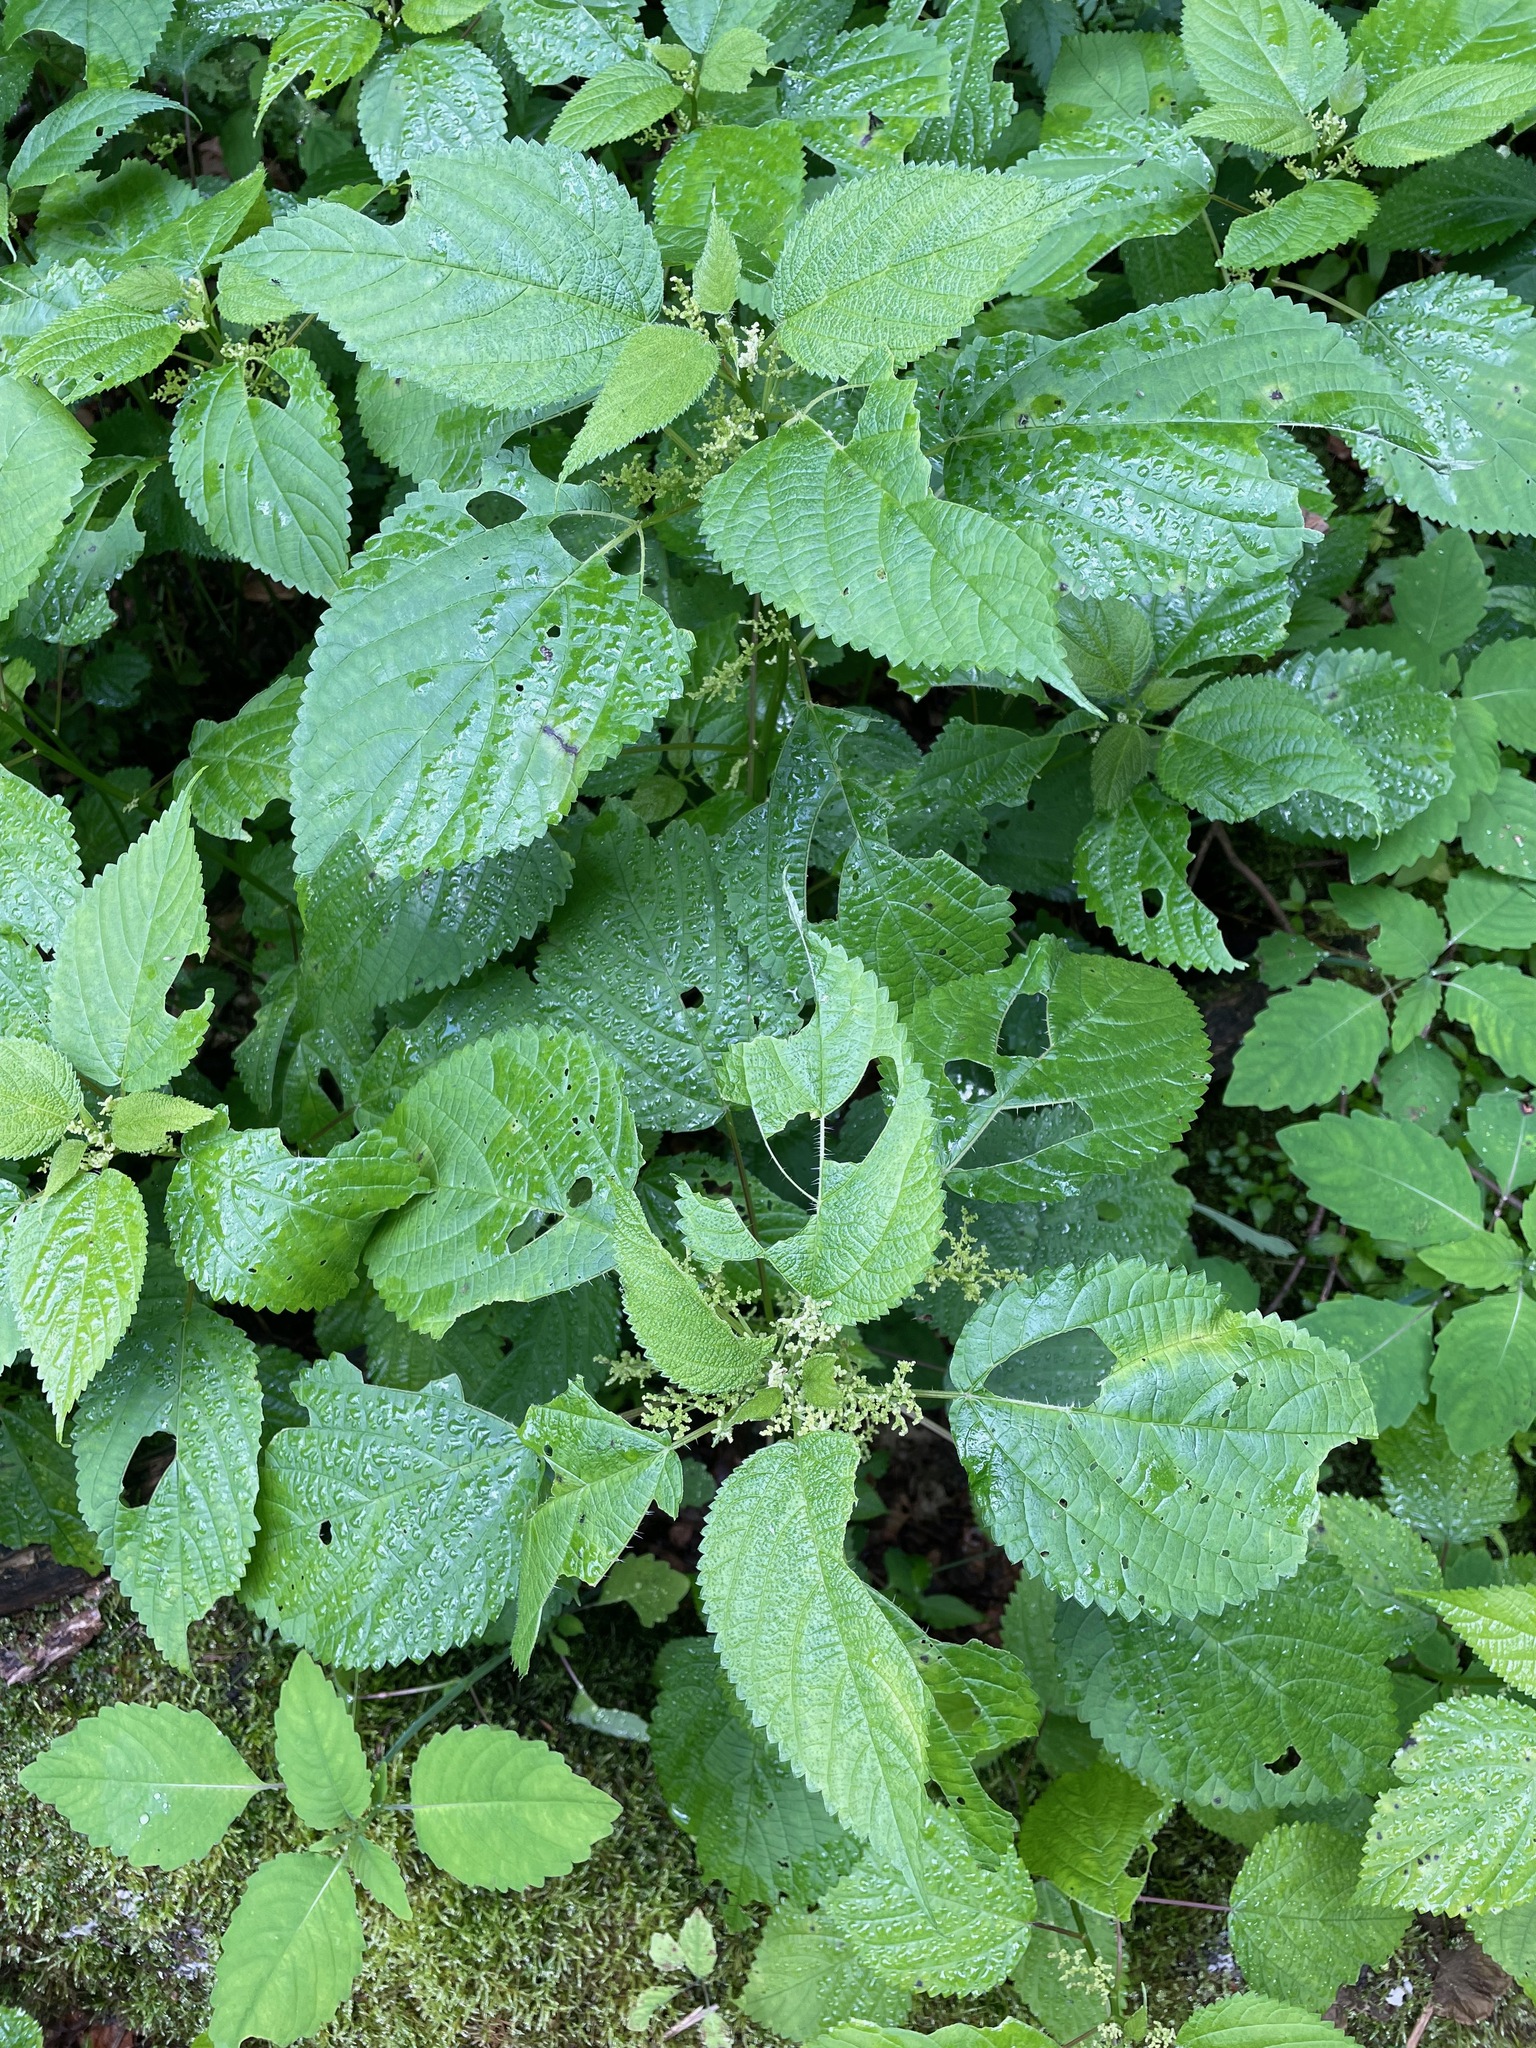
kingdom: Plantae
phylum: Tracheophyta
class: Magnoliopsida
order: Rosales
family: Urticaceae
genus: Laportea
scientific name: Laportea canadensis
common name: Canada nettle
